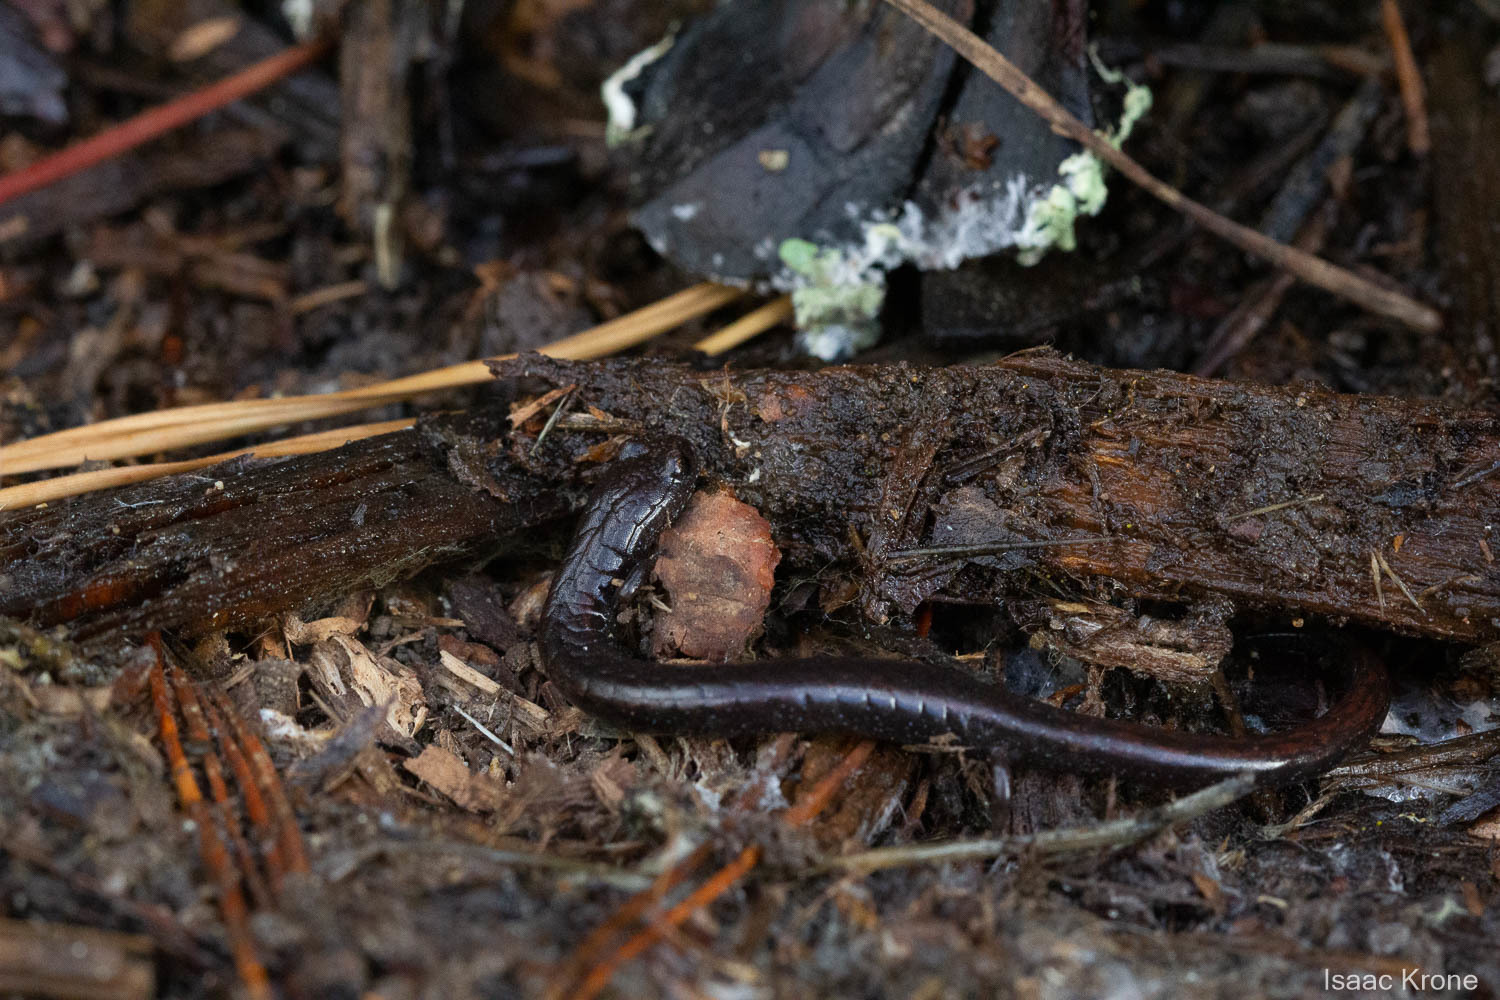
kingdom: Animalia
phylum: Chordata
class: Amphibia
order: Caudata
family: Plethodontidae
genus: Batrachoseps
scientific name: Batrachoseps attenuatus
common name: California slender salamander
